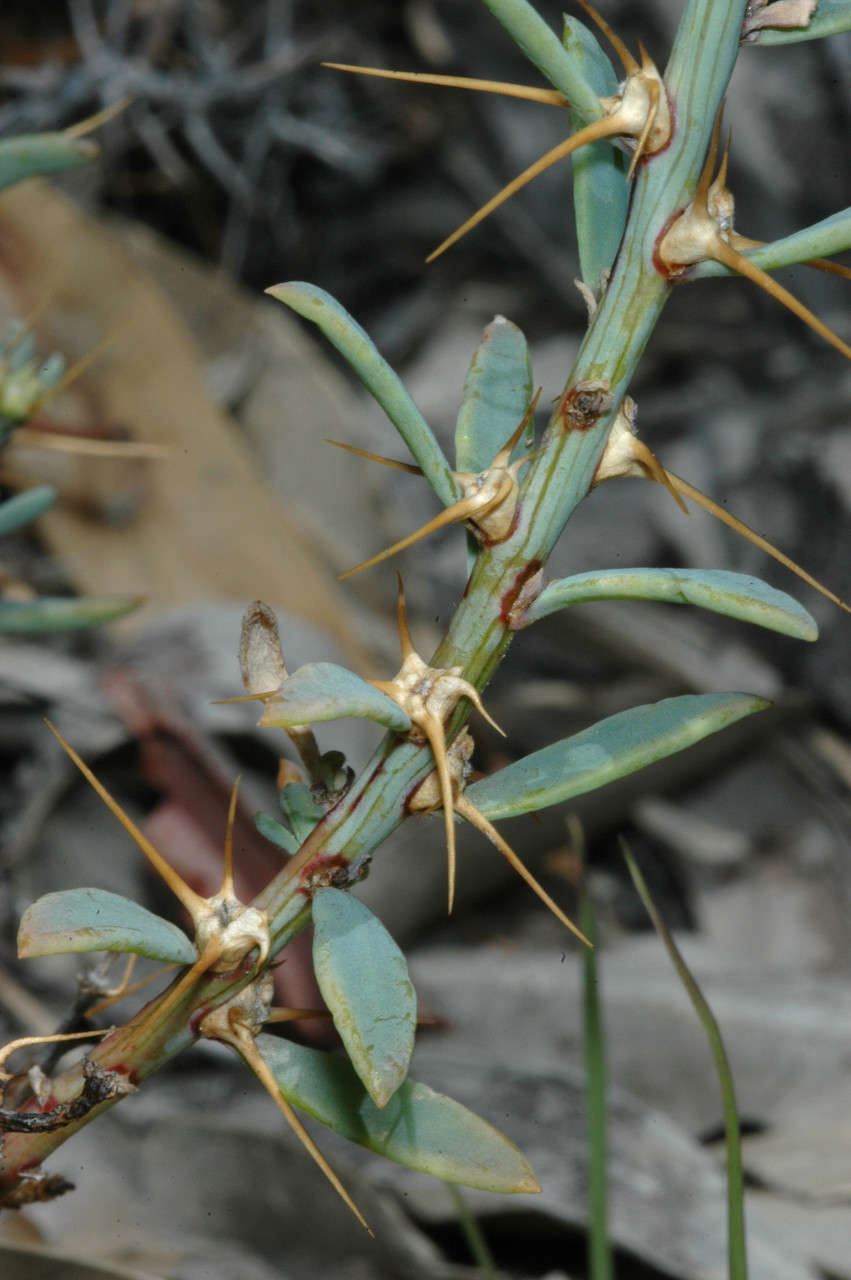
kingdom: Plantae
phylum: Tracheophyta
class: Magnoliopsida
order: Caryophyllales
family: Amaranthaceae
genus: Sclerolaena
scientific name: Sclerolaena muricata
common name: Roly-poly
